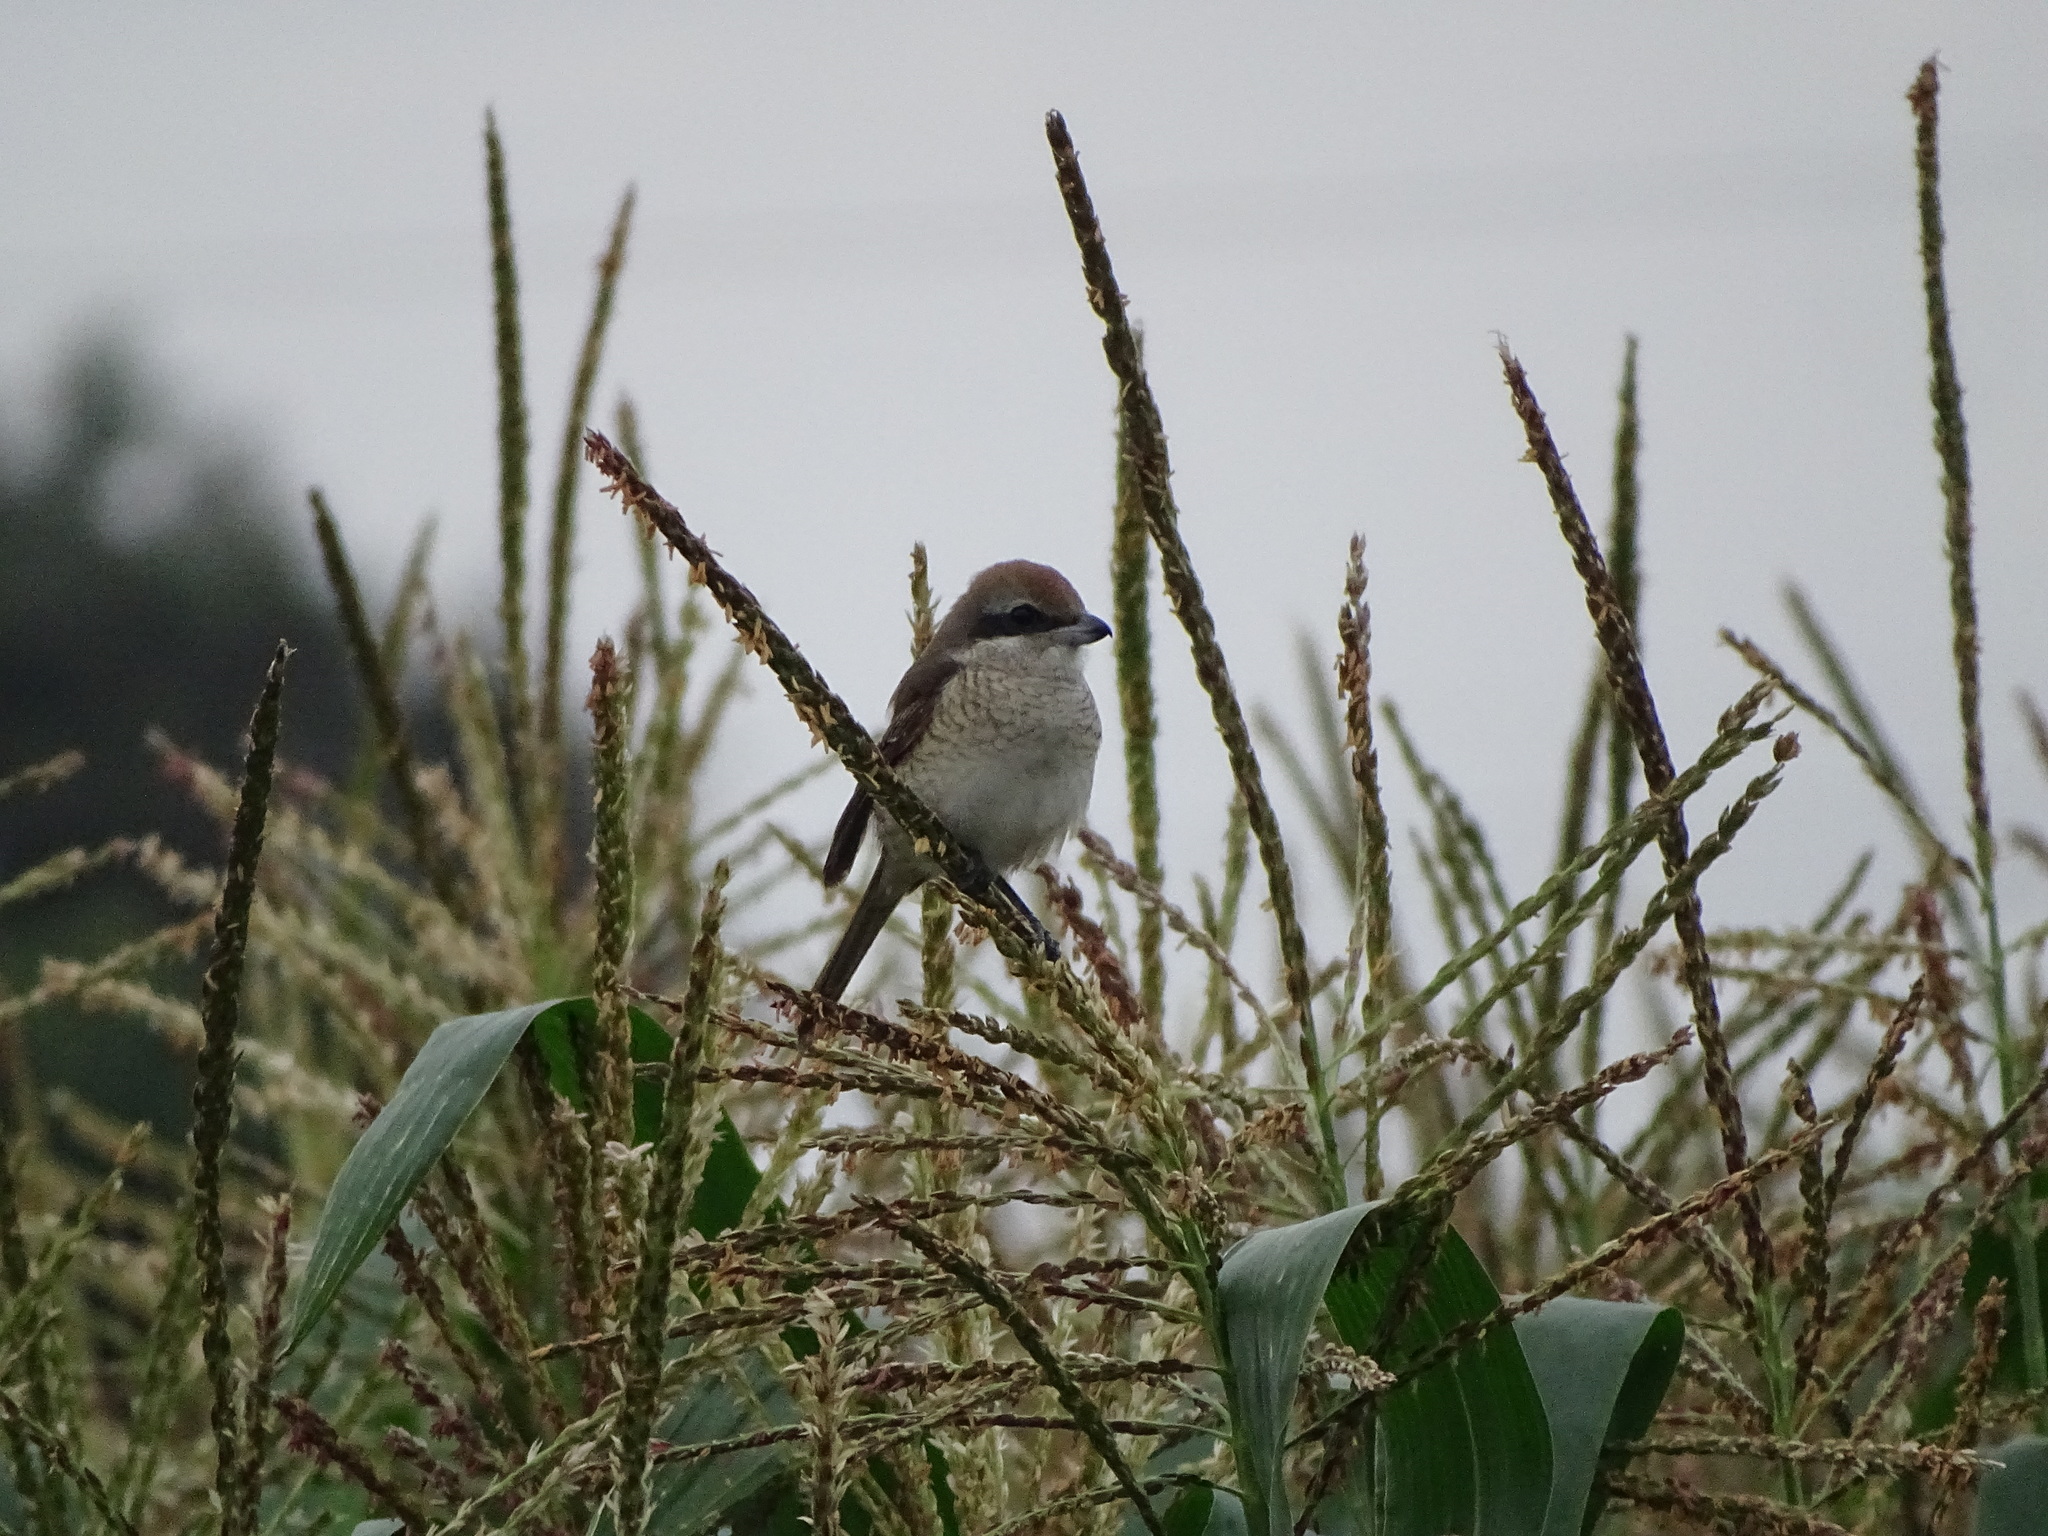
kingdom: Animalia
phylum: Chordata
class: Aves
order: Passeriformes
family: Laniidae
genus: Lanius
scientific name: Lanius cristatus
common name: Brown shrike
